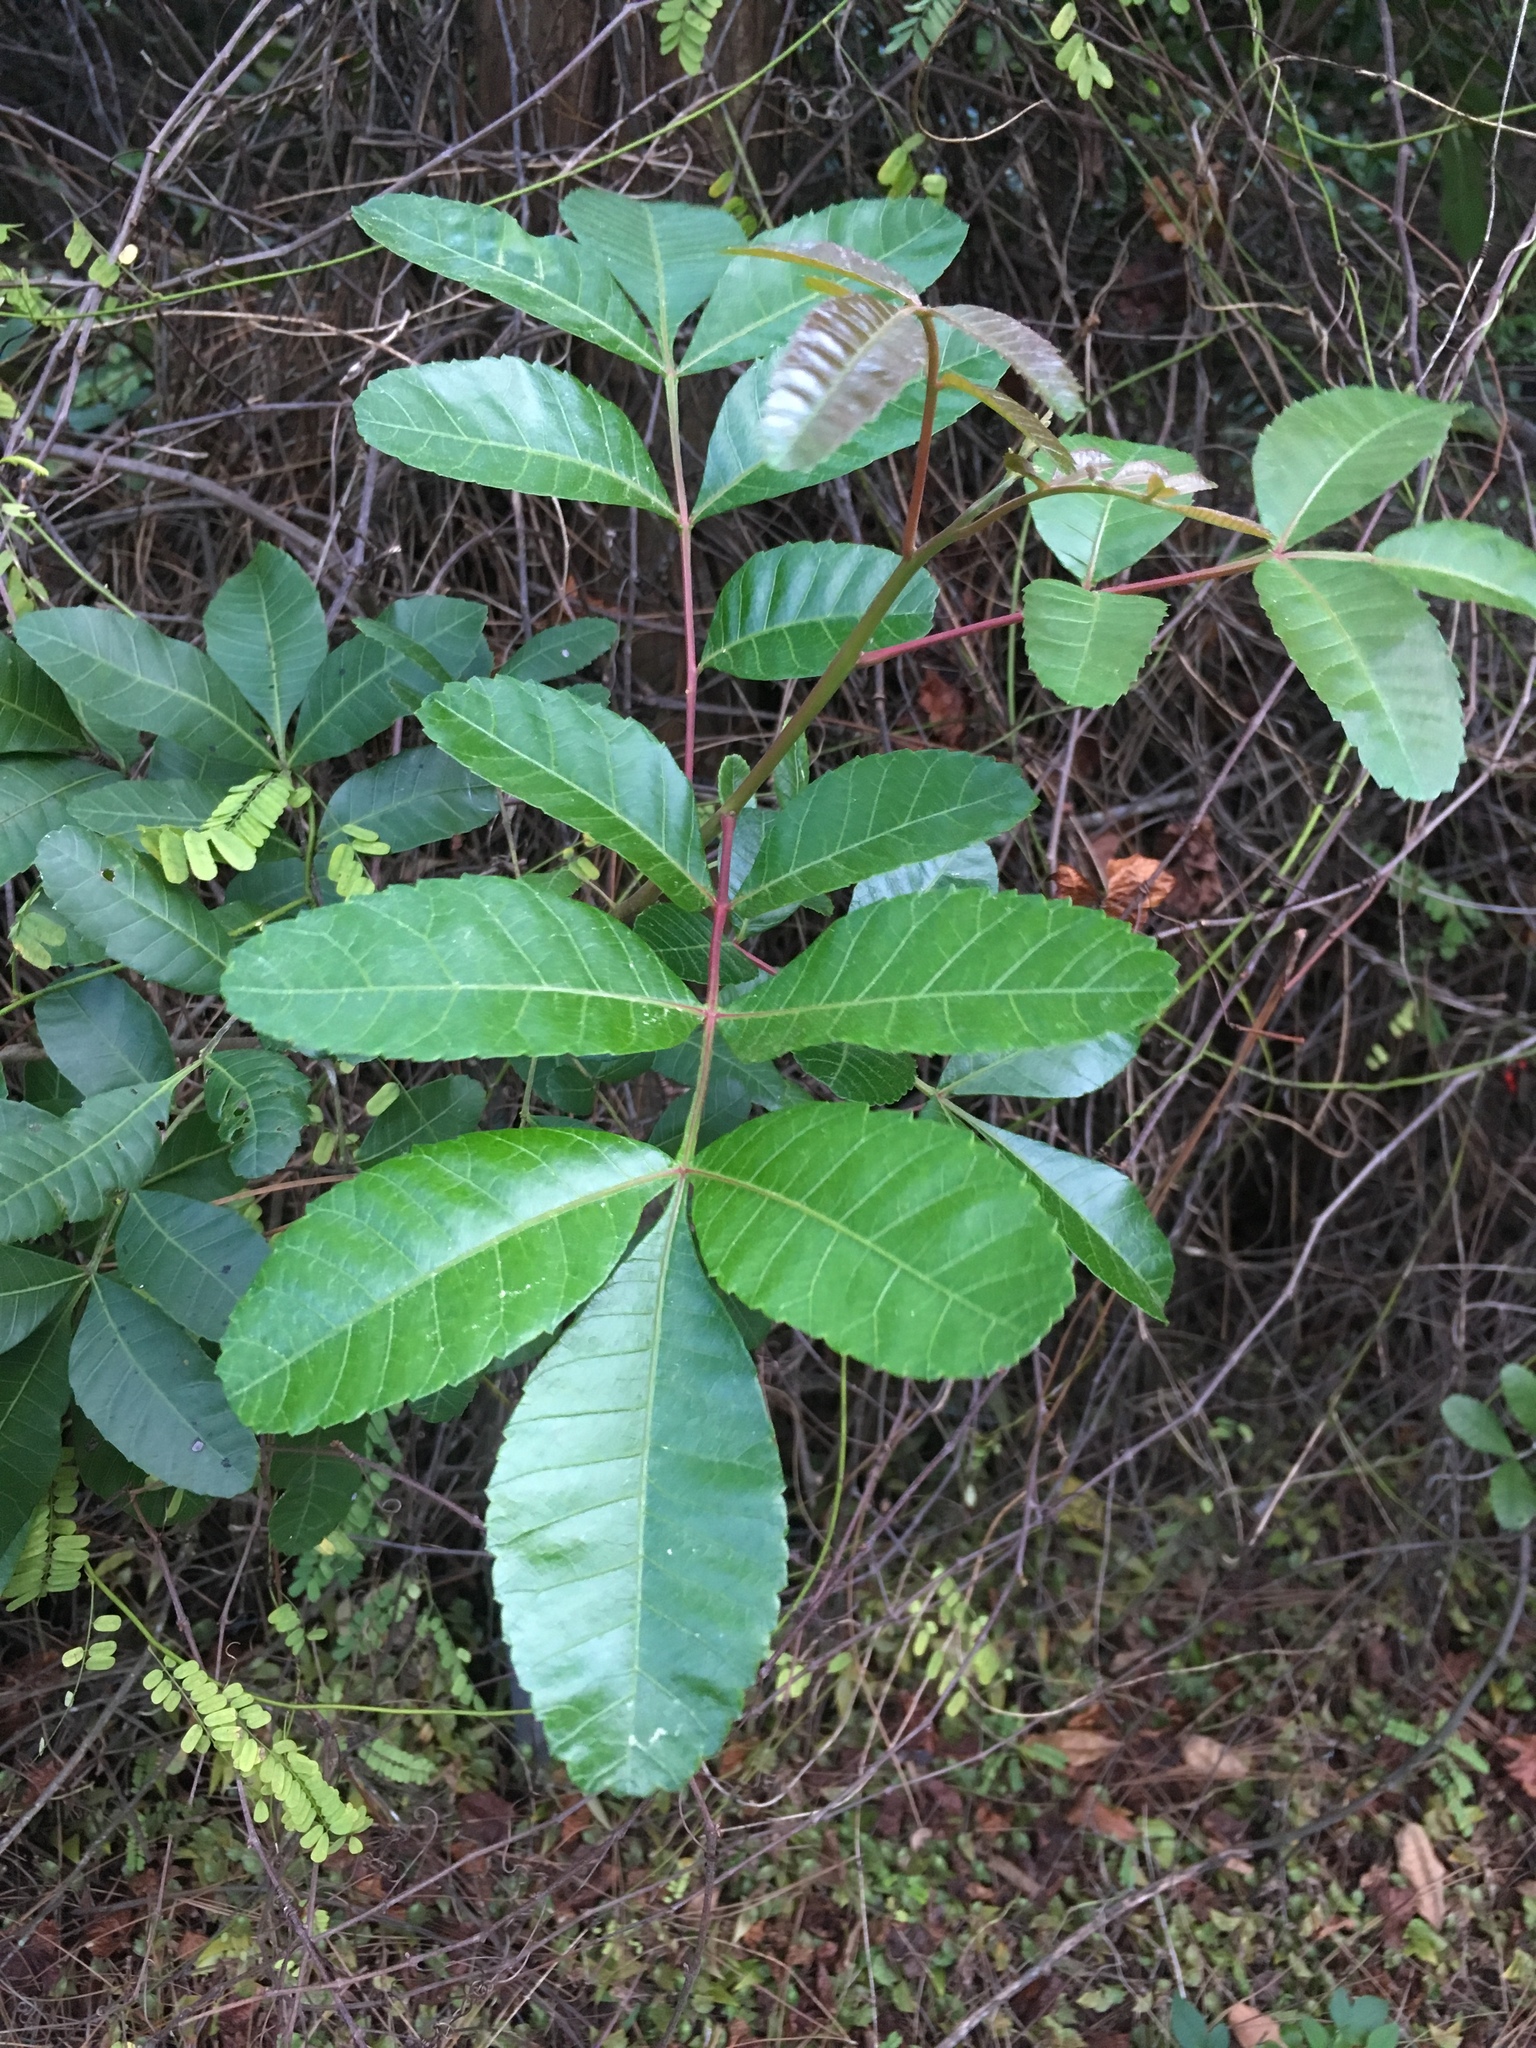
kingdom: Plantae
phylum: Tracheophyta
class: Magnoliopsida
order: Sapindales
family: Anacardiaceae
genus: Schinus
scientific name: Schinus terebinthifolia
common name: Brazilian peppertree
